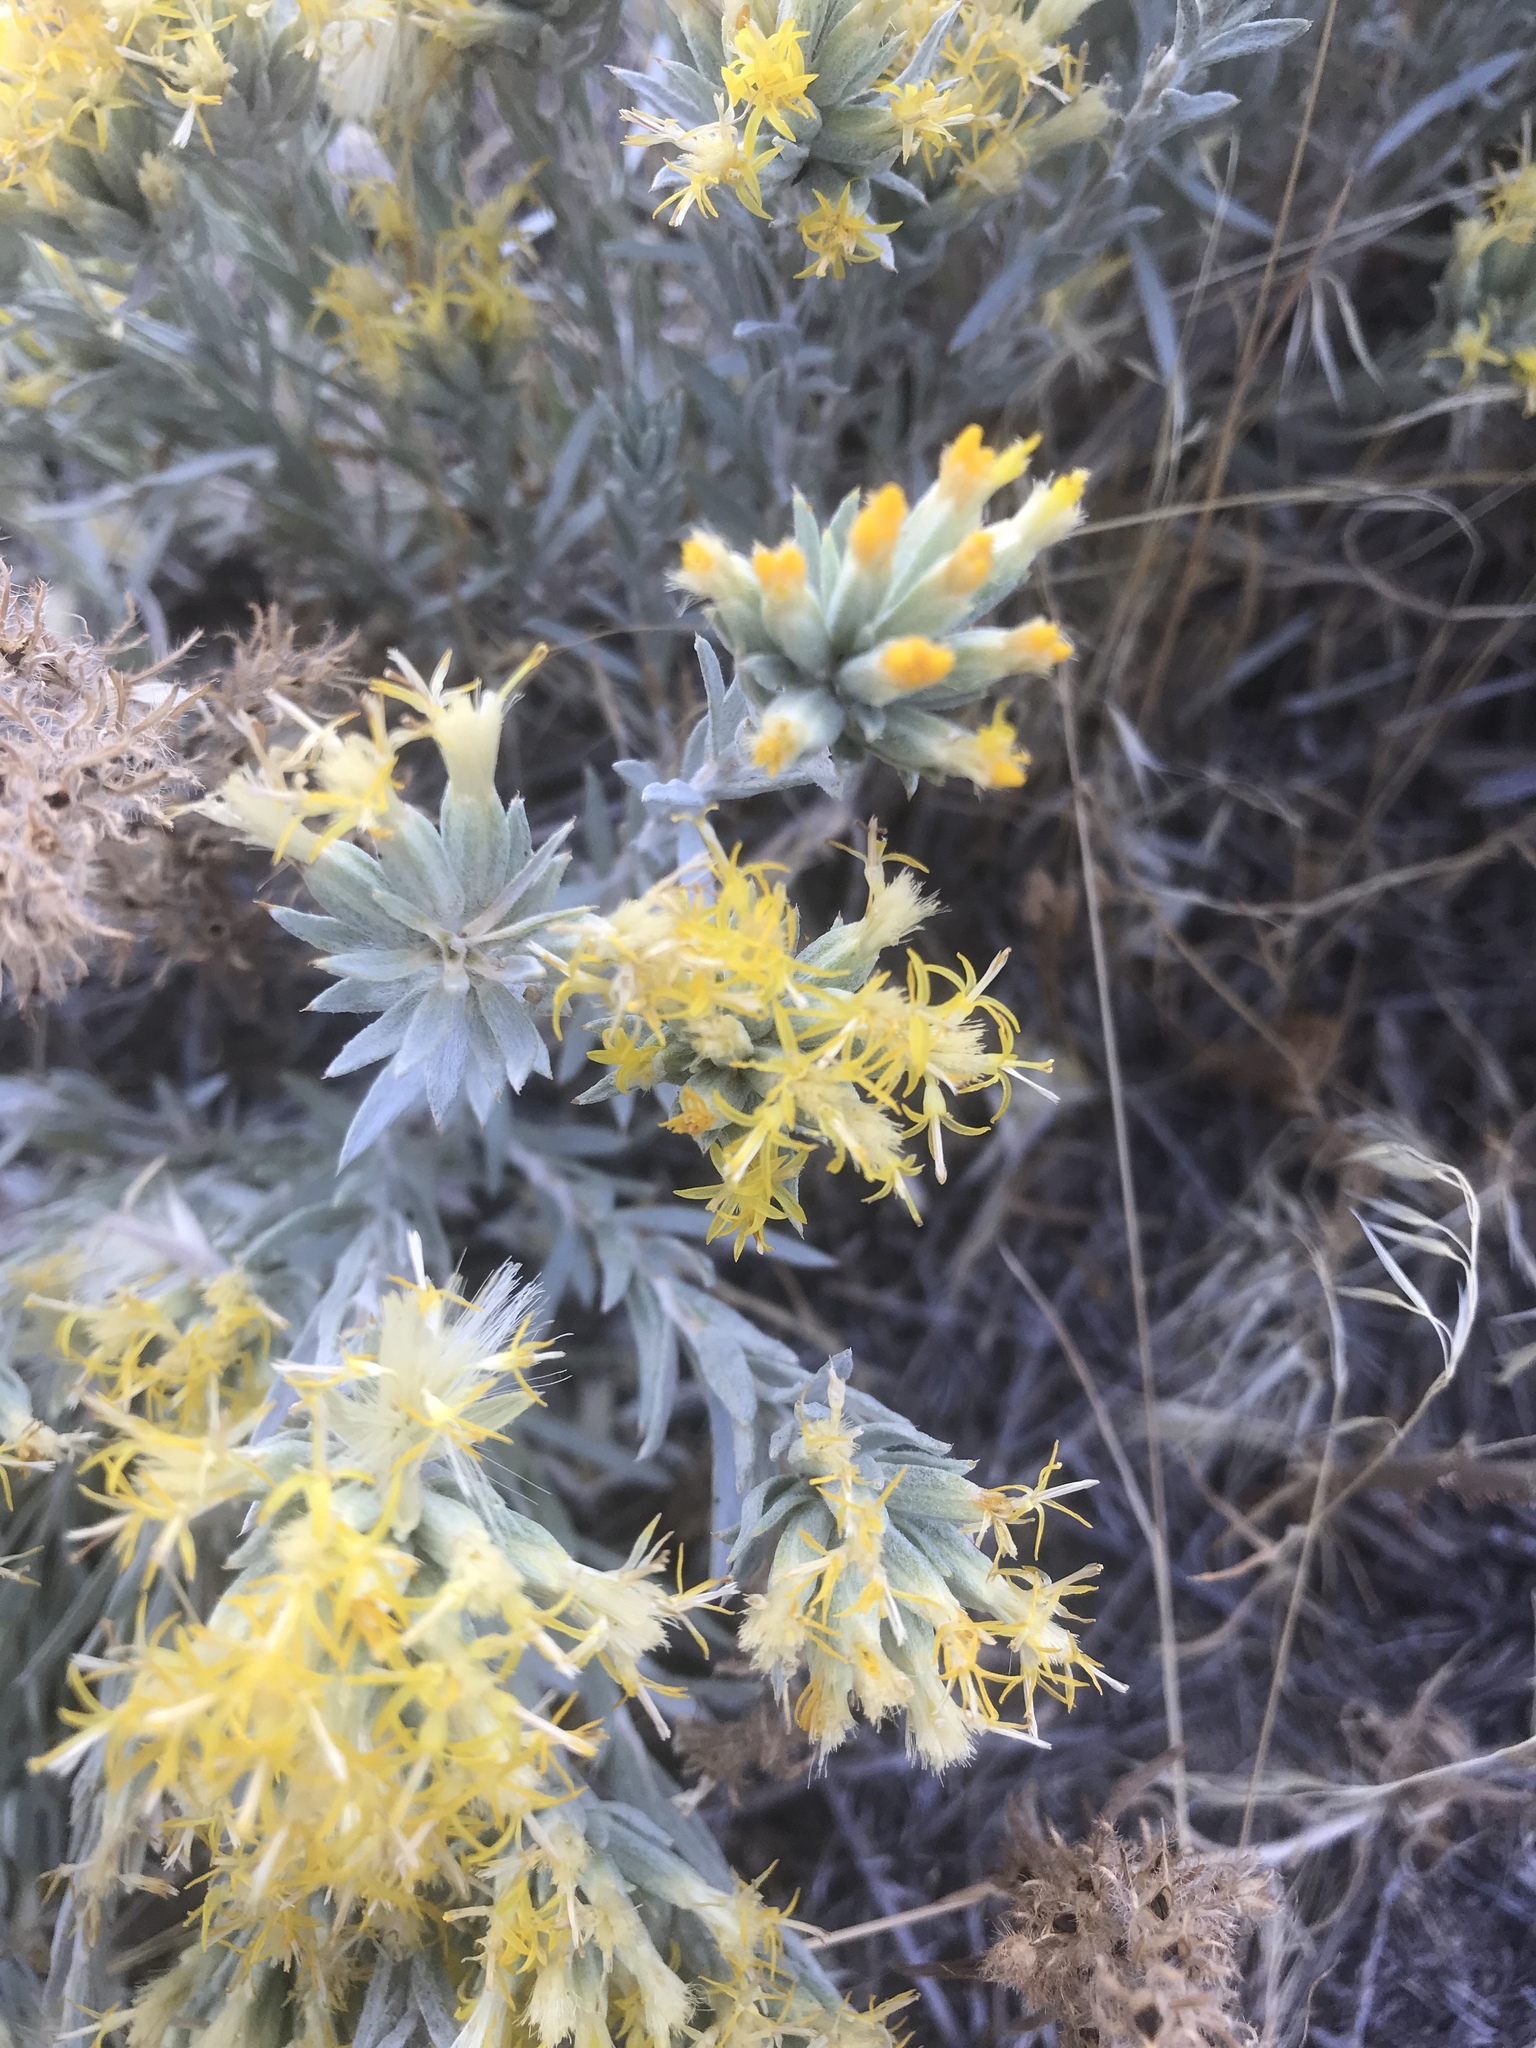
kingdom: Plantae
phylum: Tracheophyta
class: Magnoliopsida
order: Asterales
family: Asteraceae
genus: Tetradymia
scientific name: Tetradymia canescens
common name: Spineless horsebrush
